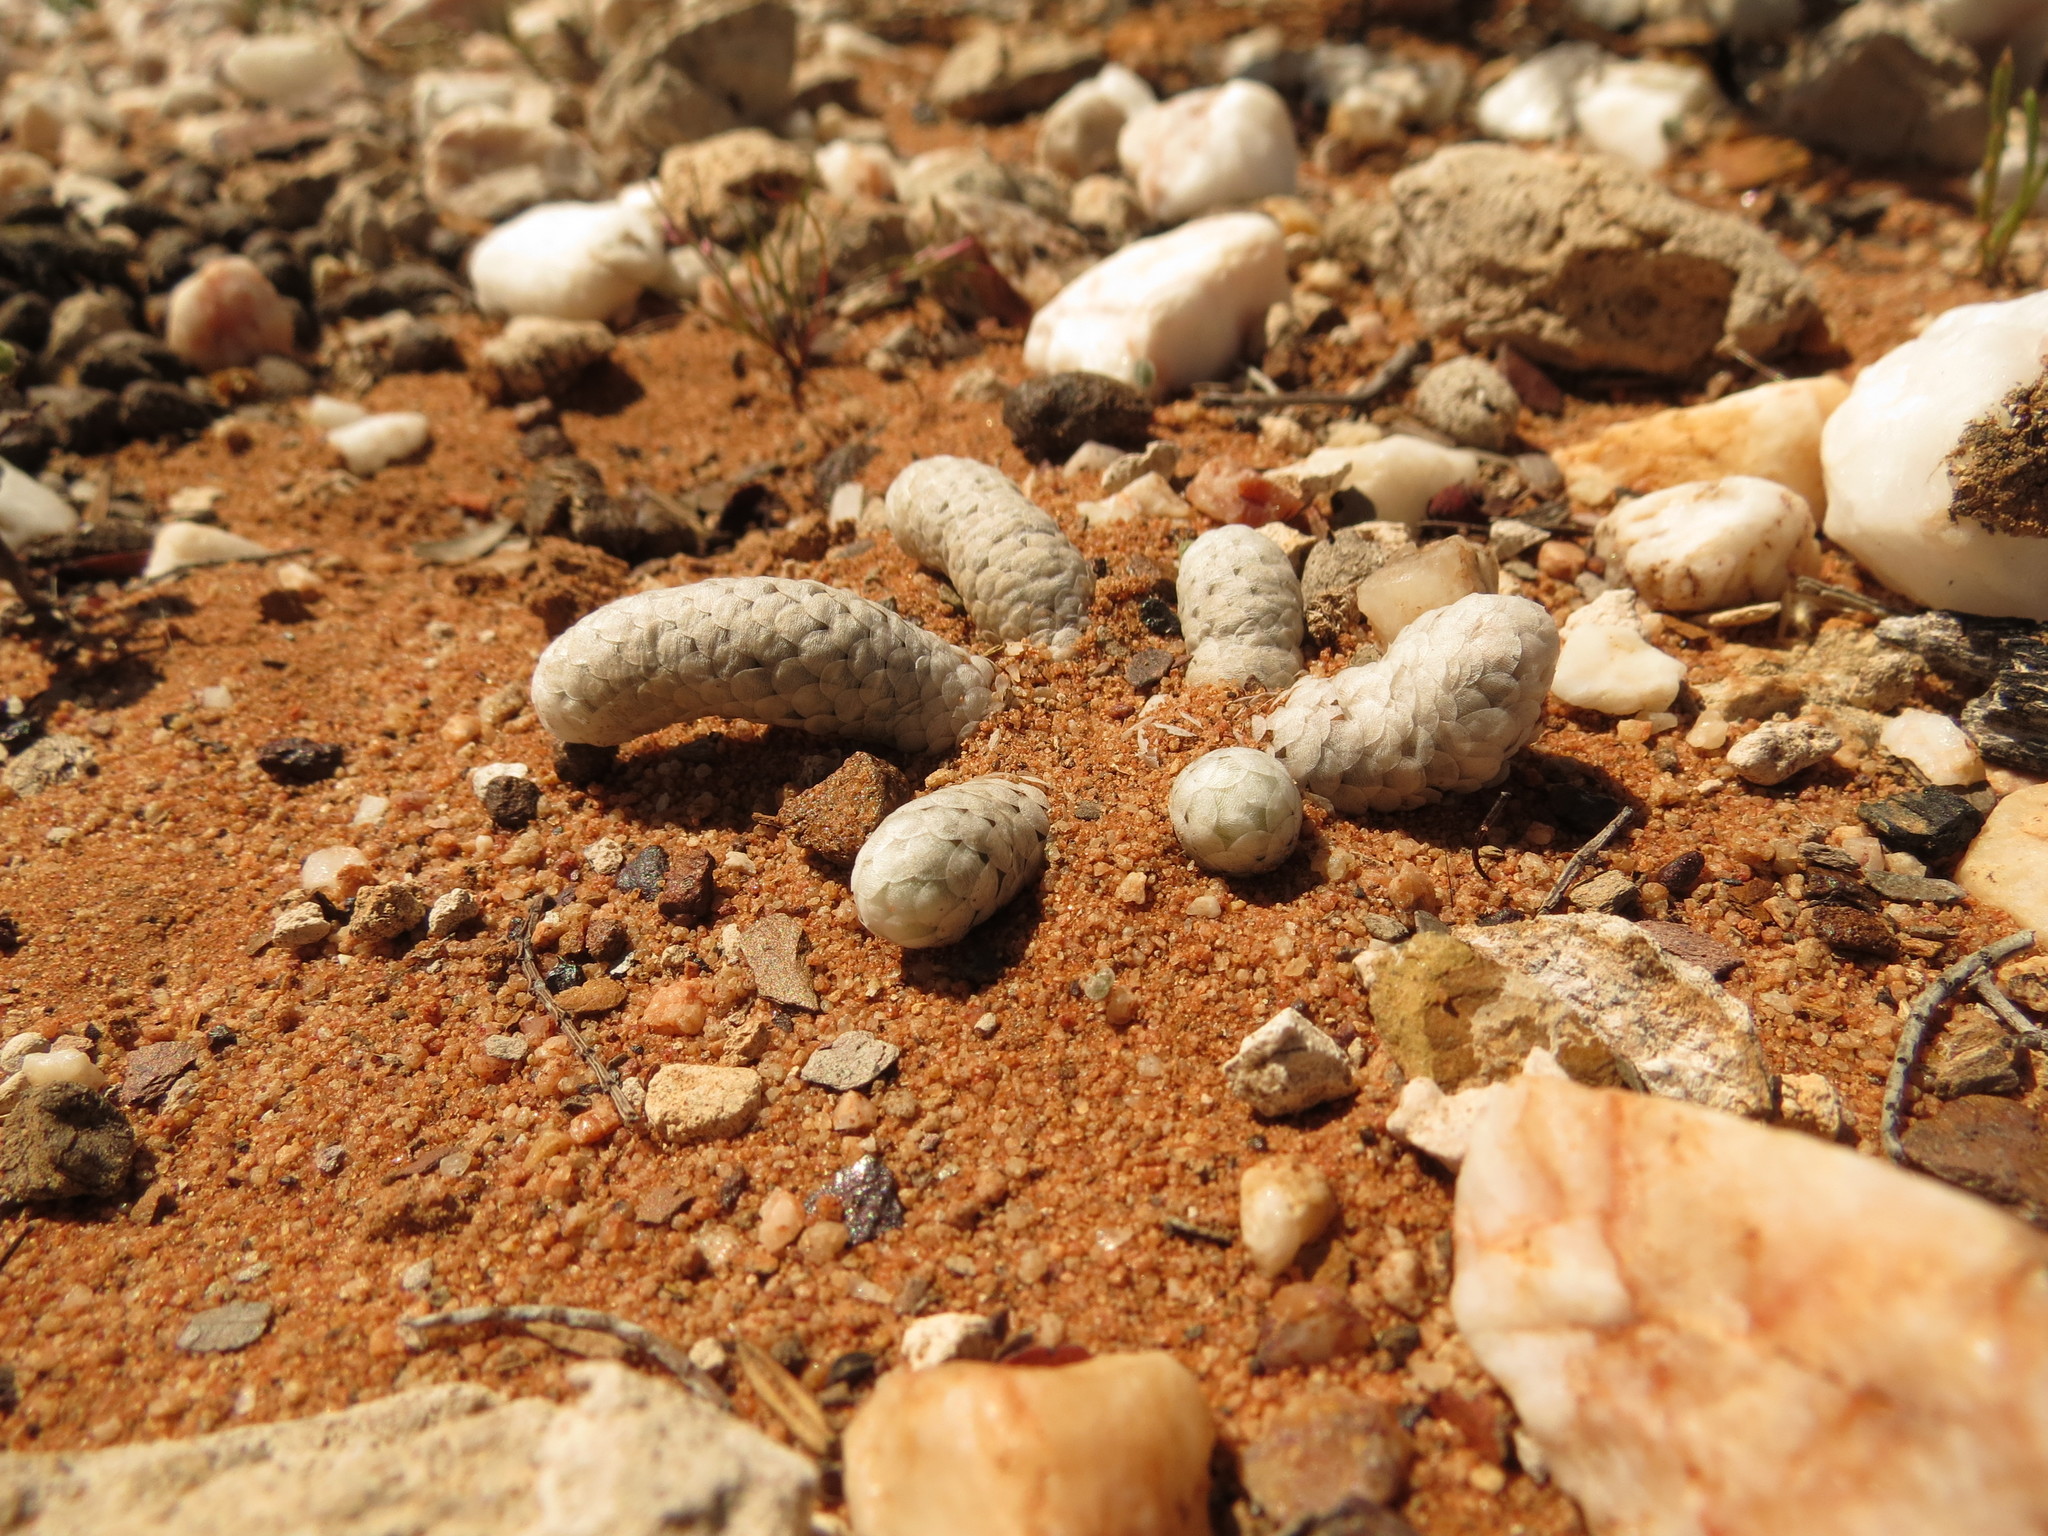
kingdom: Plantae
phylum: Tracheophyta
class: Magnoliopsida
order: Caryophyllales
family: Anacampserotaceae
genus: Avonia
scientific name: Avonia papyracea
